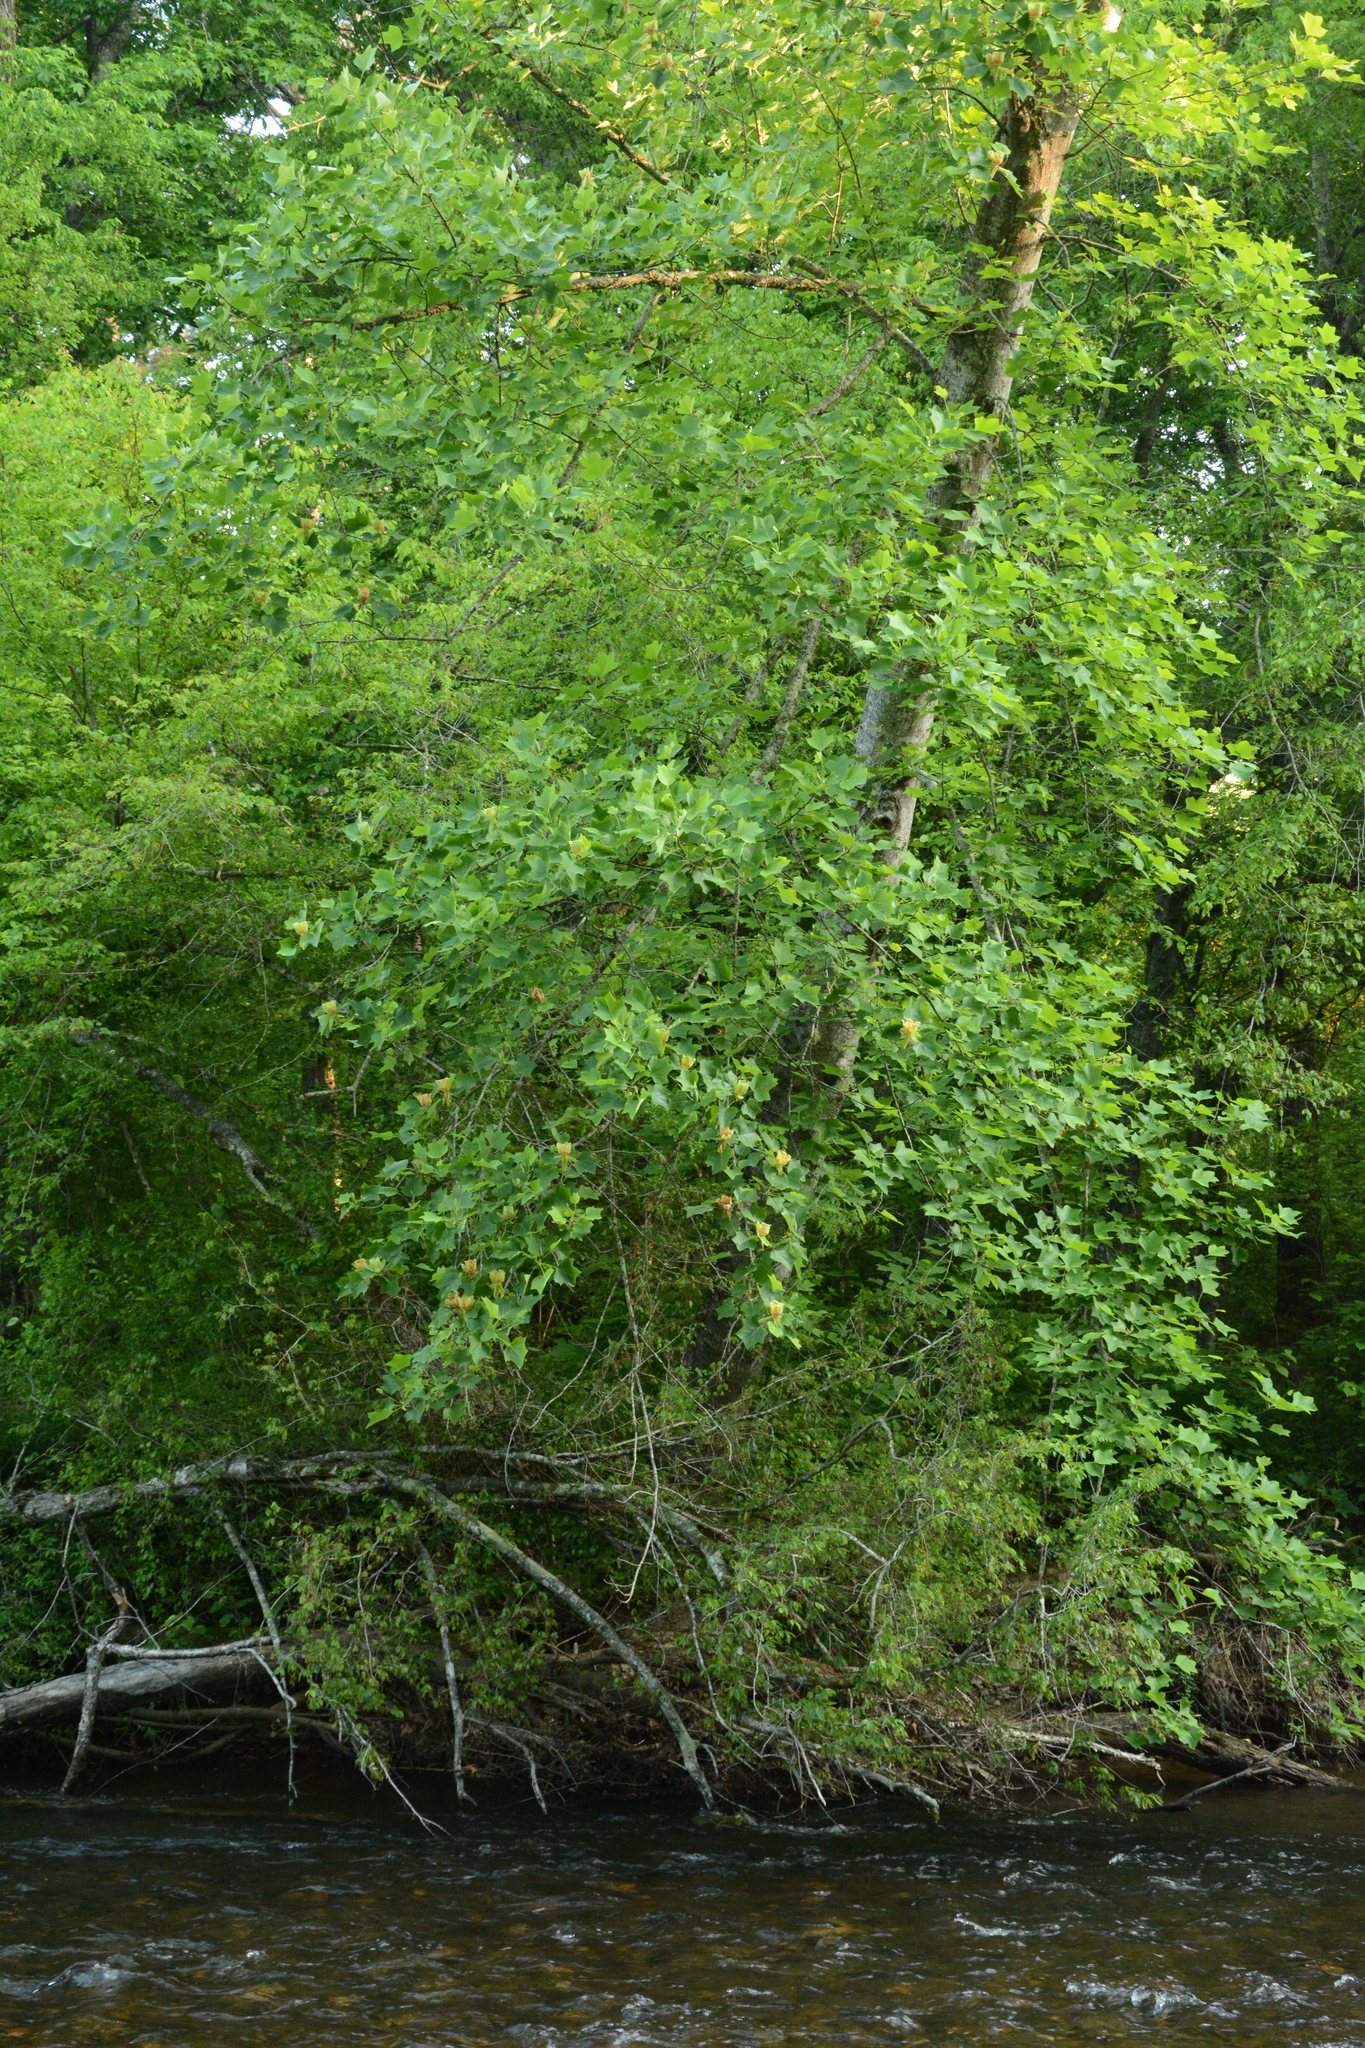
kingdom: Plantae
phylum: Tracheophyta
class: Magnoliopsida
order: Magnoliales
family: Magnoliaceae
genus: Liriodendron
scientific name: Liriodendron tulipifera
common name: Tulip tree
